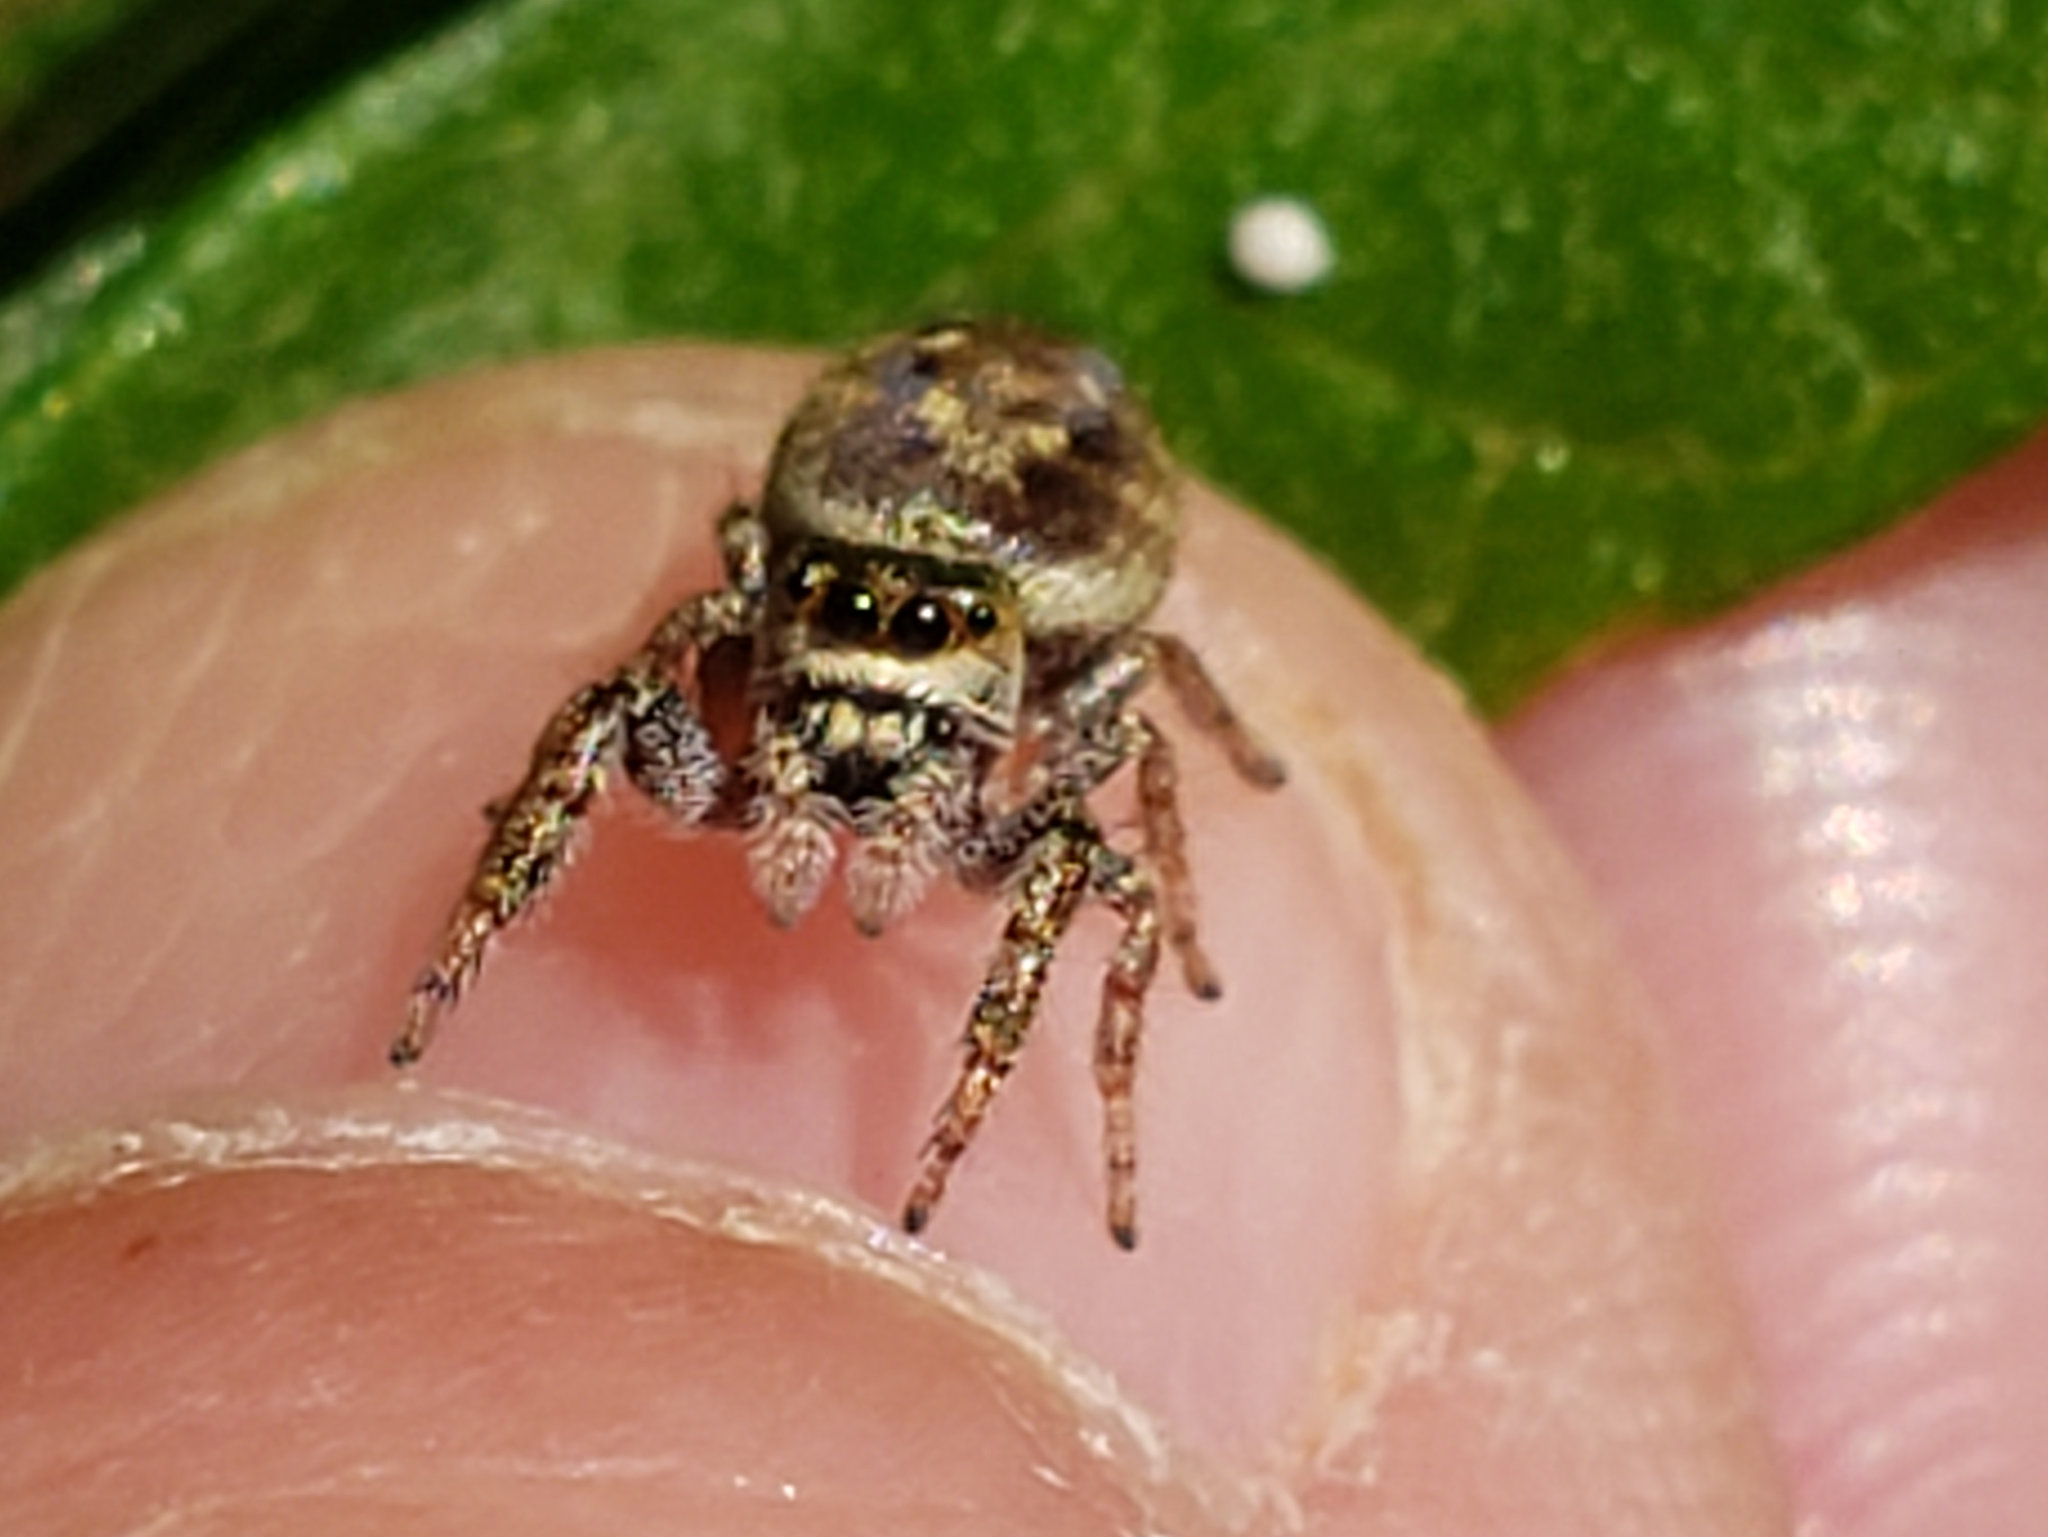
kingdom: Animalia
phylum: Arthropoda
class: Arachnida
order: Araneae
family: Salticidae
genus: Metaphidippus
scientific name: Metaphidippus manni
